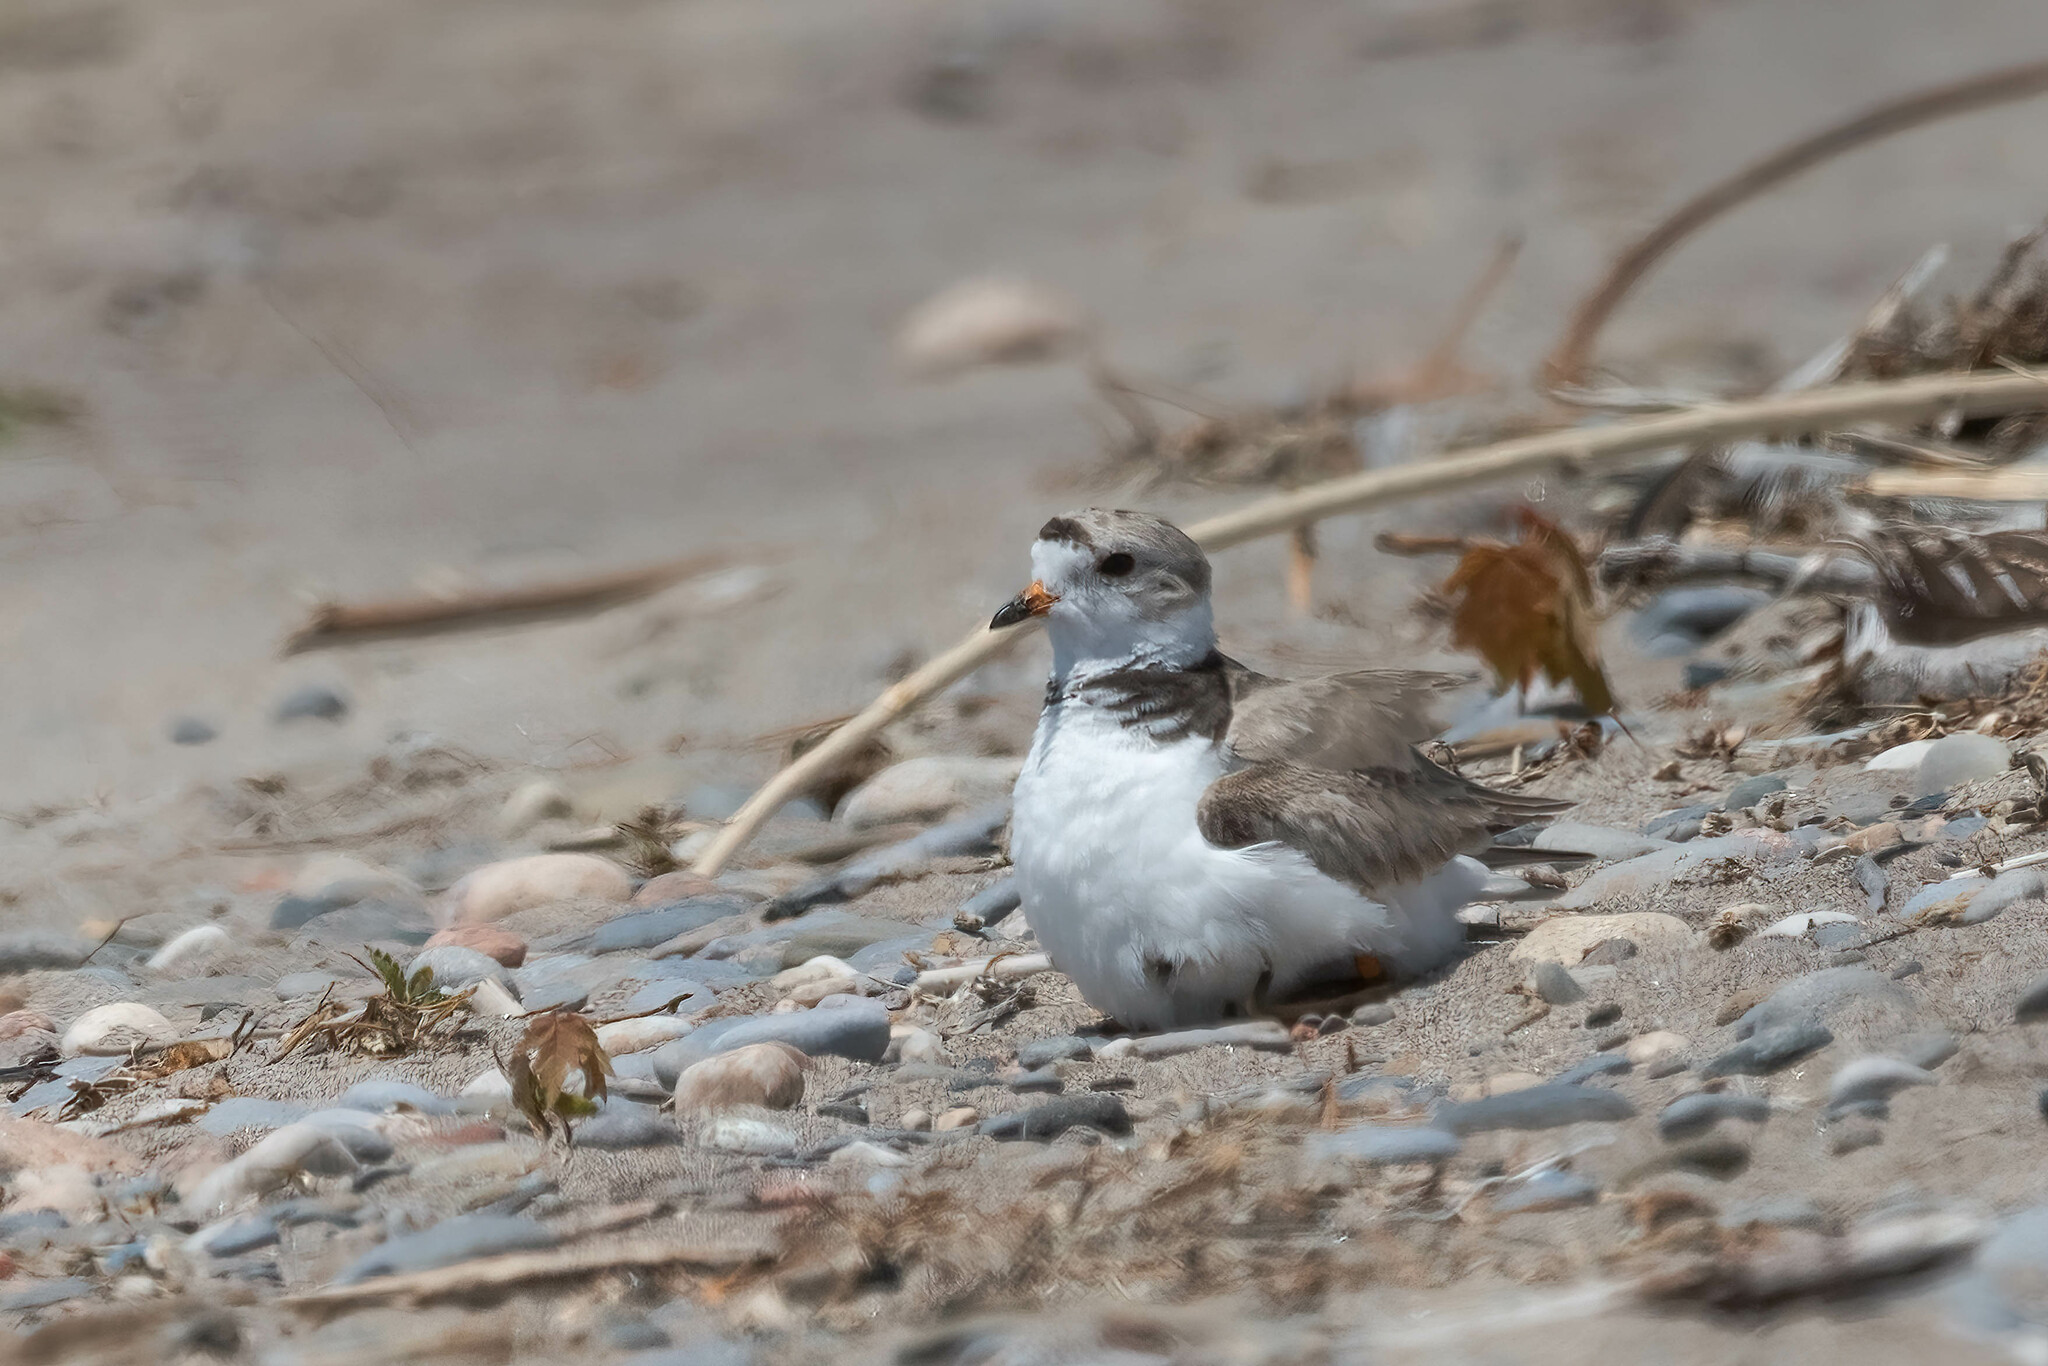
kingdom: Animalia
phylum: Chordata
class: Aves
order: Charadriiformes
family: Charadriidae
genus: Charadrius
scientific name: Charadrius melodus
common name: Piping plover
